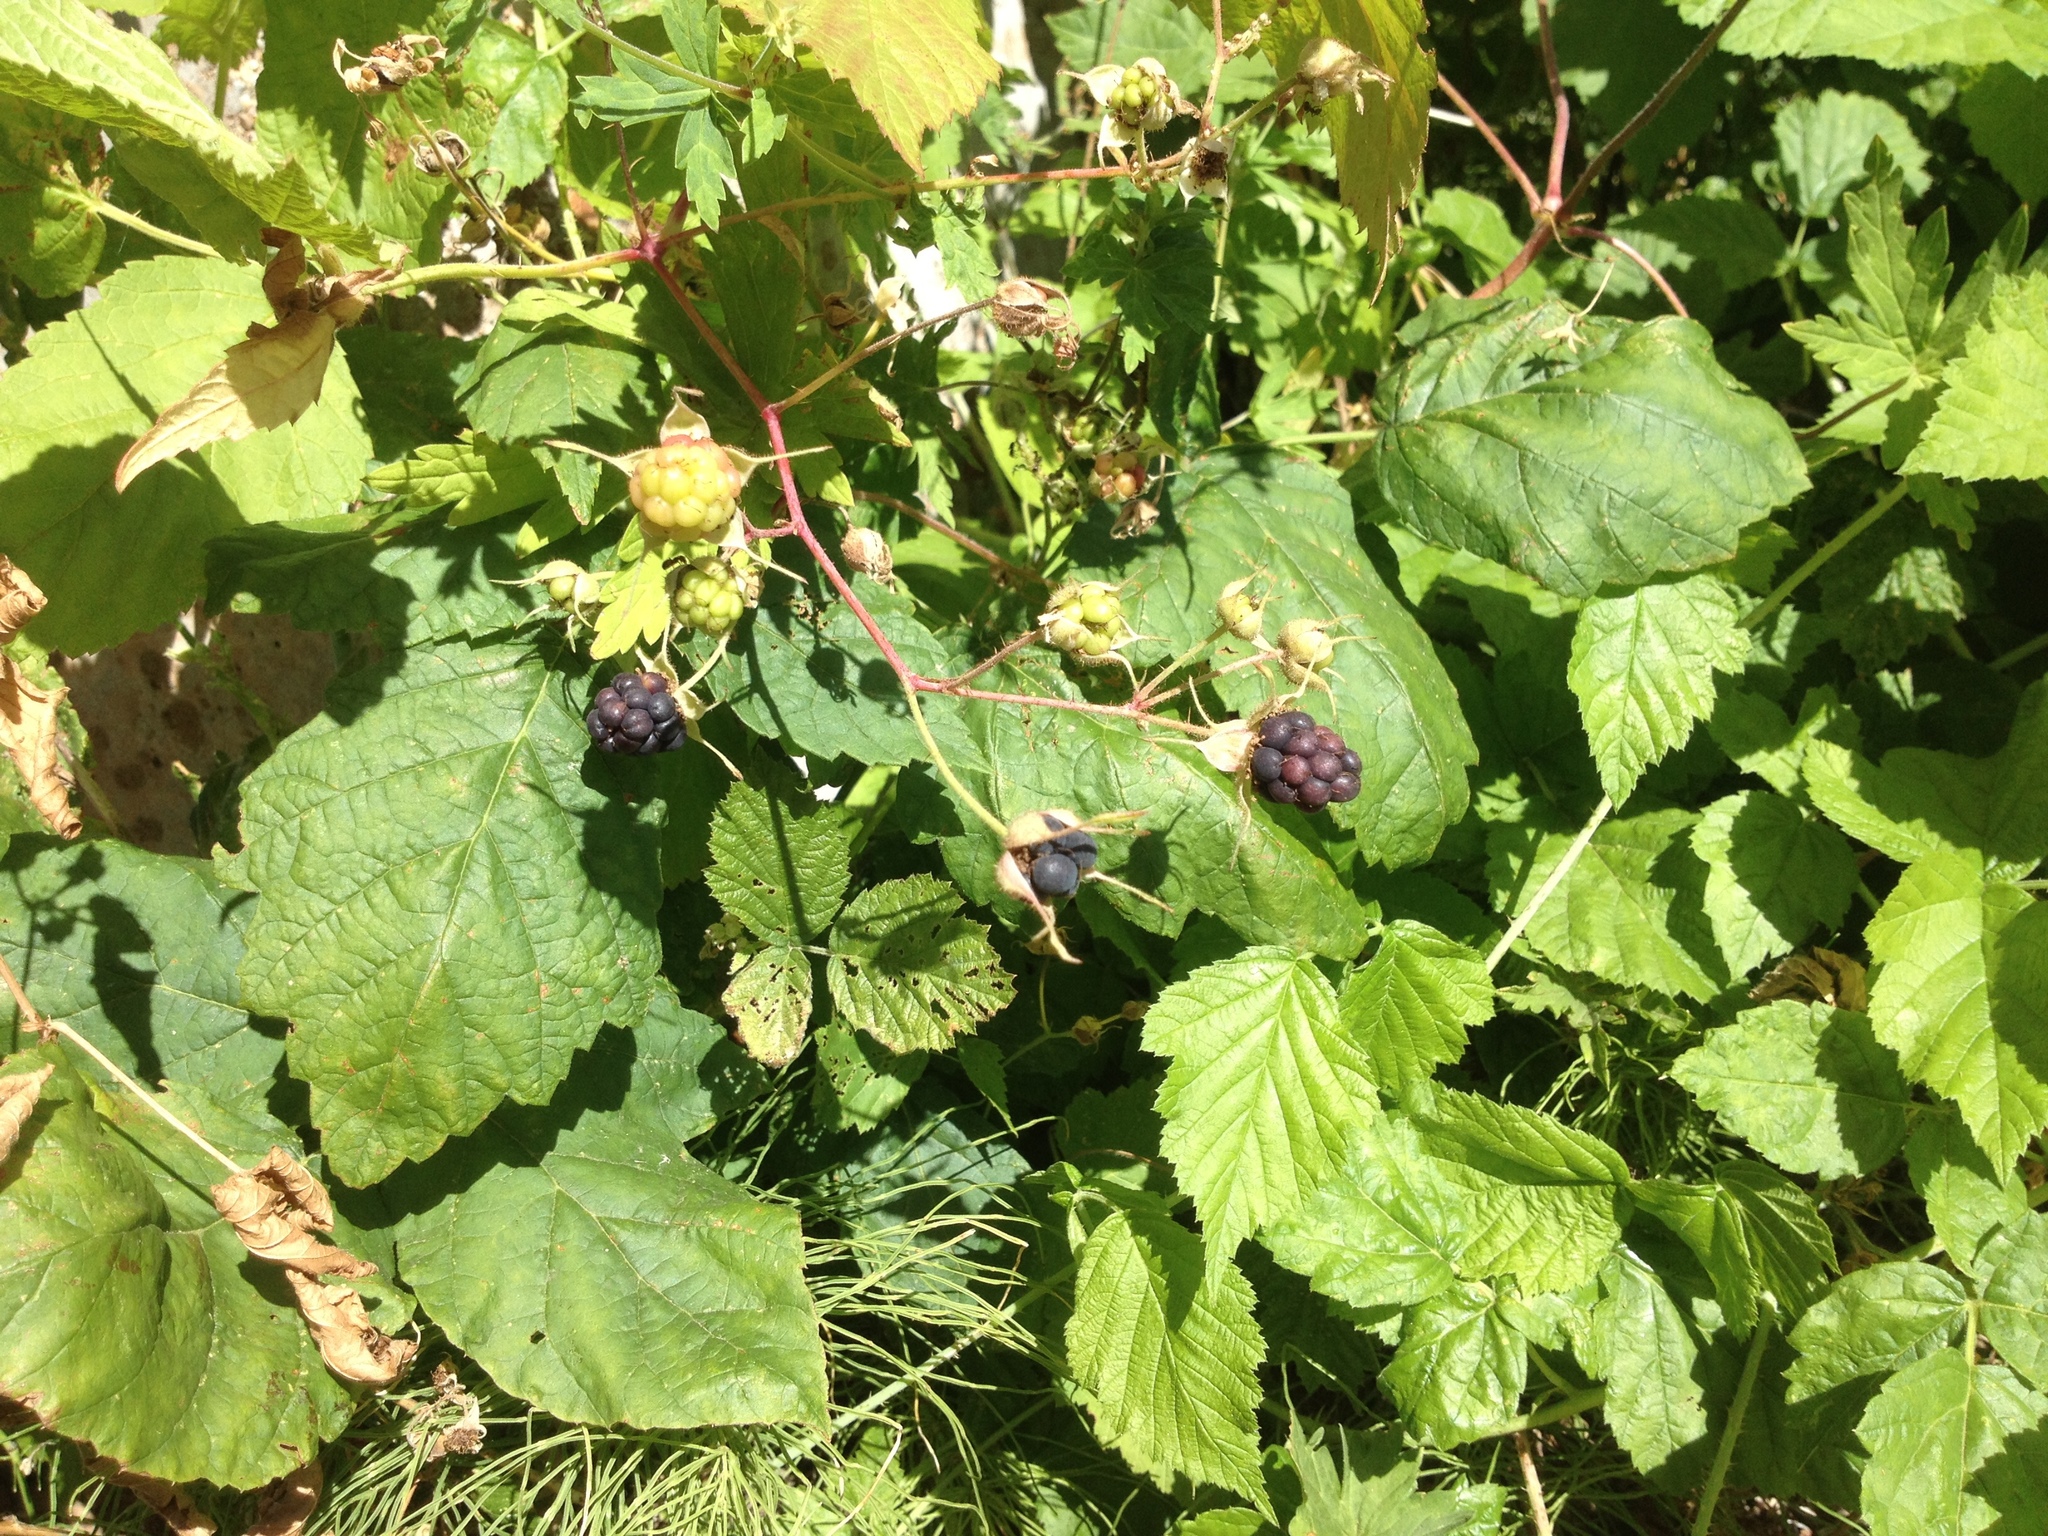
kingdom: Plantae
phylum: Tracheophyta
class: Magnoliopsida
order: Rosales
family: Rosaceae
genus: Rubus
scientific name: Rubus caesius
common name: Dewberry
